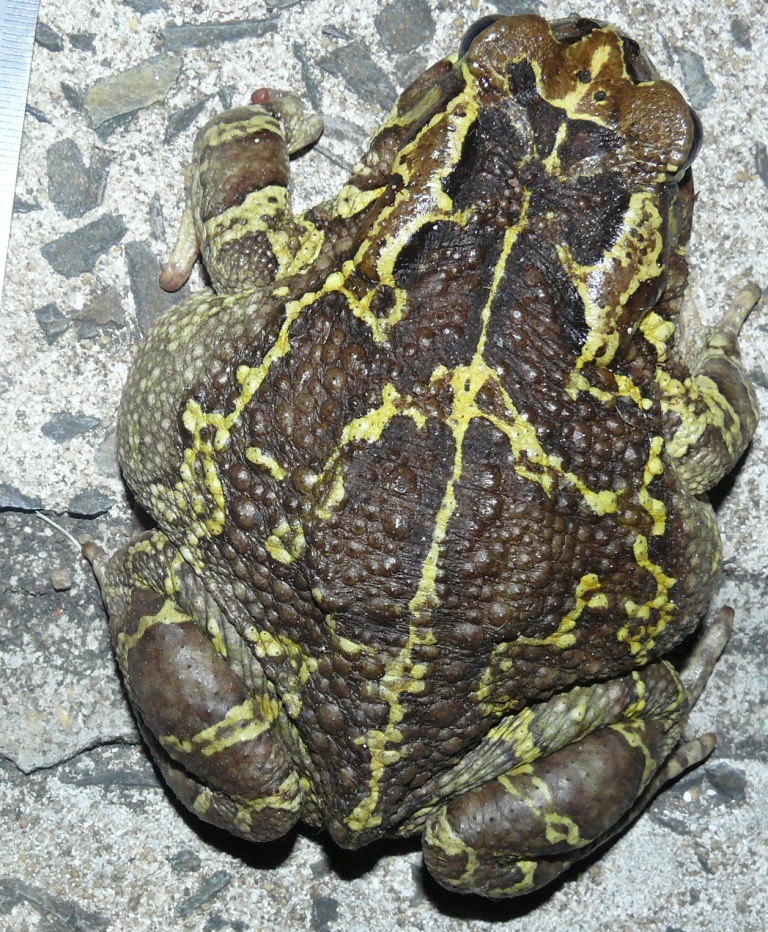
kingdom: Animalia
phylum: Chordata
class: Amphibia
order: Anura
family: Bufonidae
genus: Sclerophrys
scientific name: Sclerophrys pantherina
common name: Panther toad
